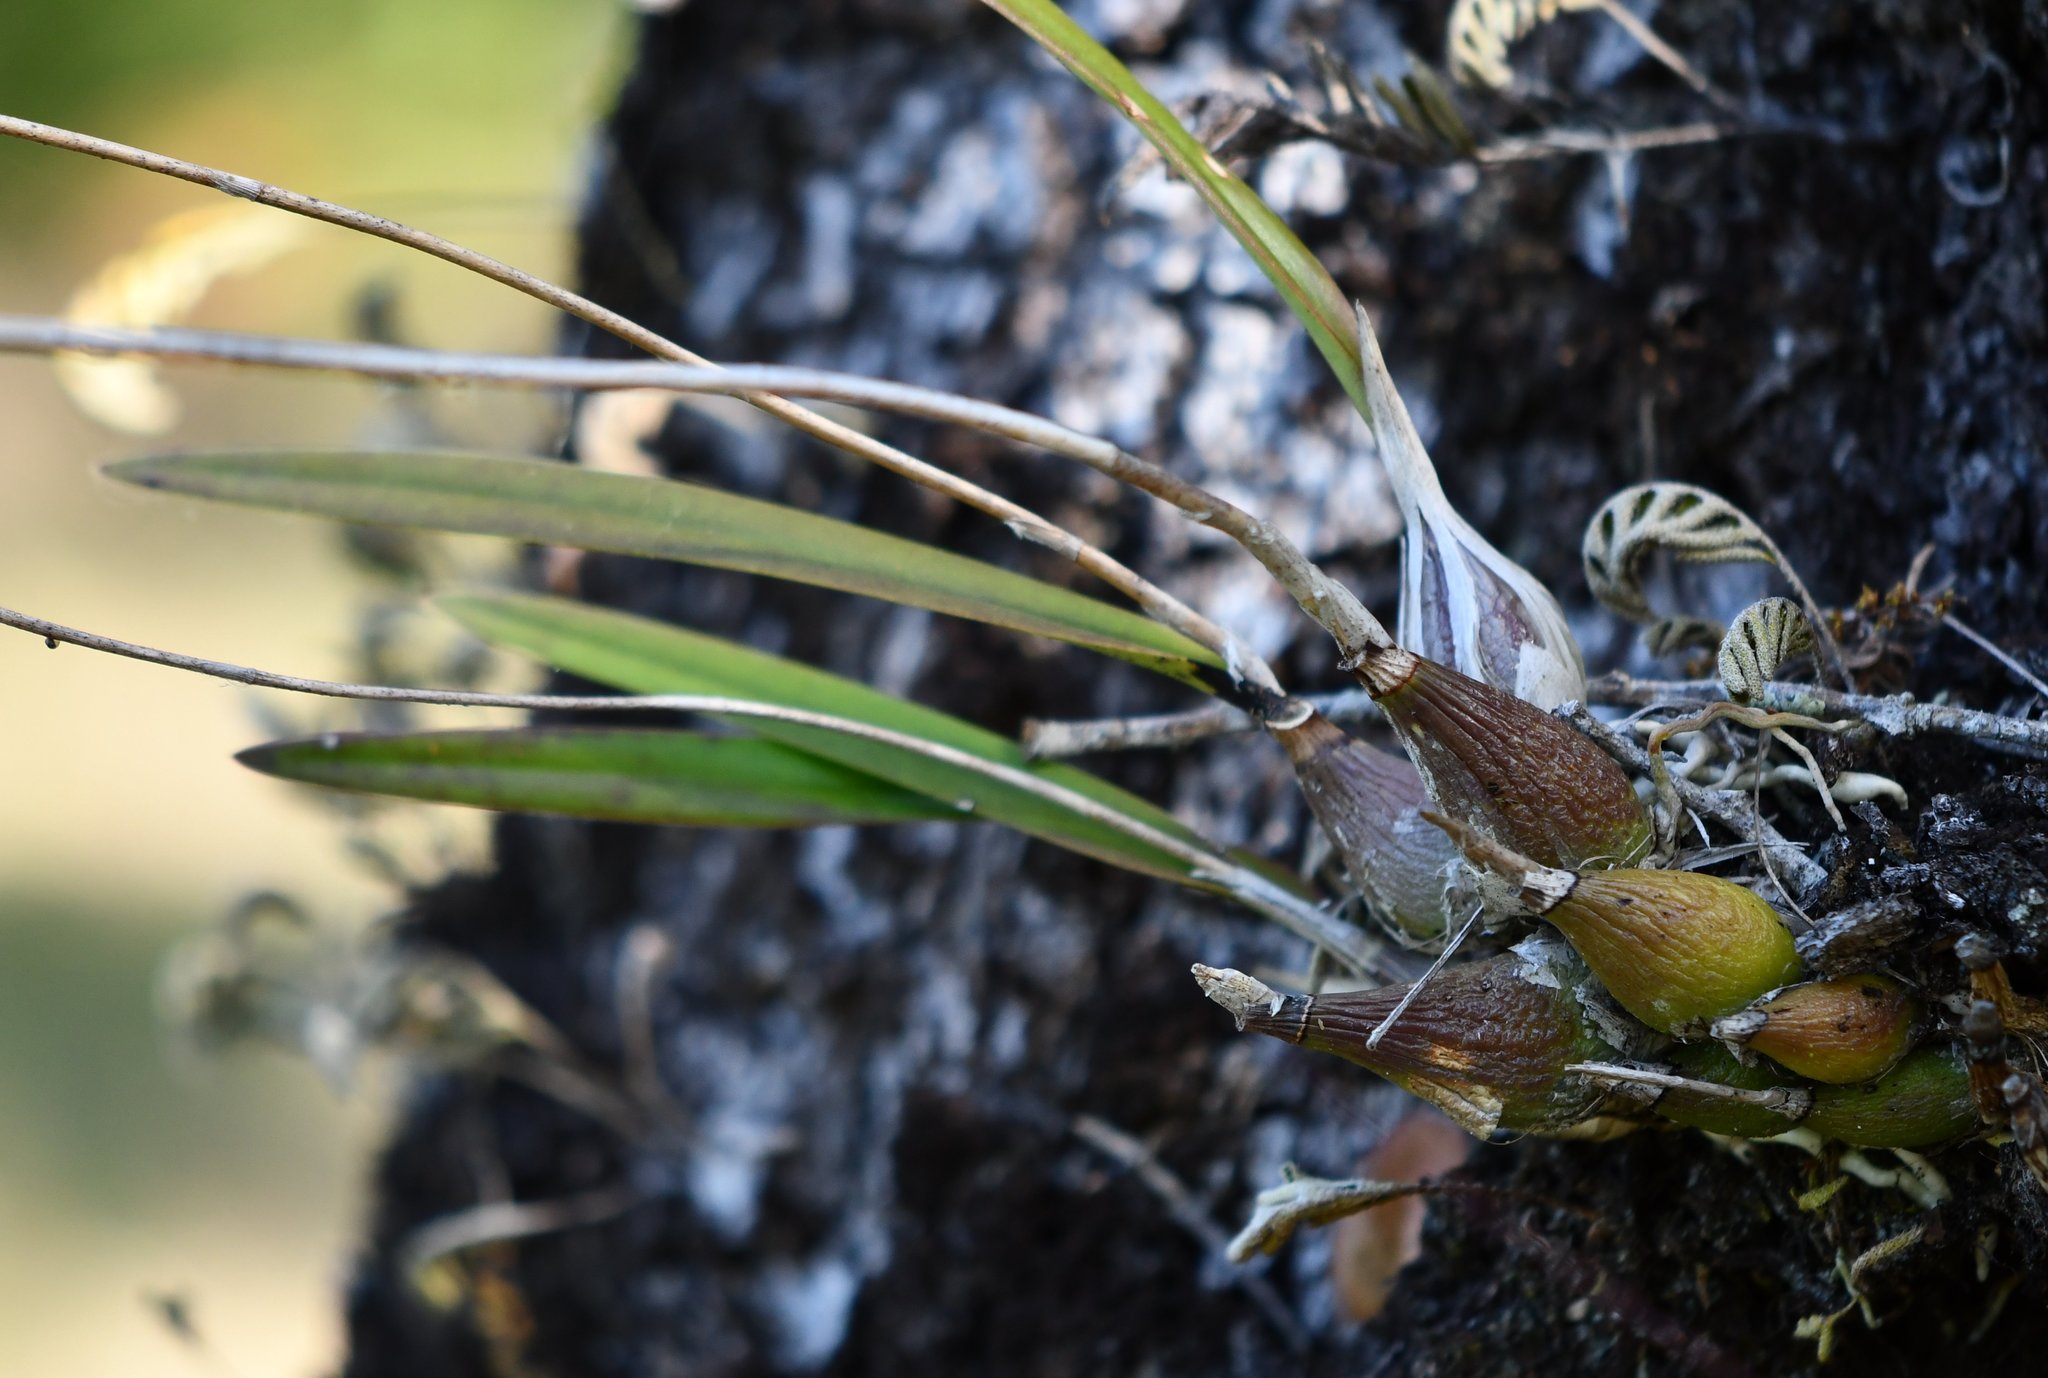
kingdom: Plantae
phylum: Tracheophyta
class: Liliopsida
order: Asparagales
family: Orchidaceae
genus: Encyclia
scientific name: Encyclia tampensis
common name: Florida butterfly orchid
